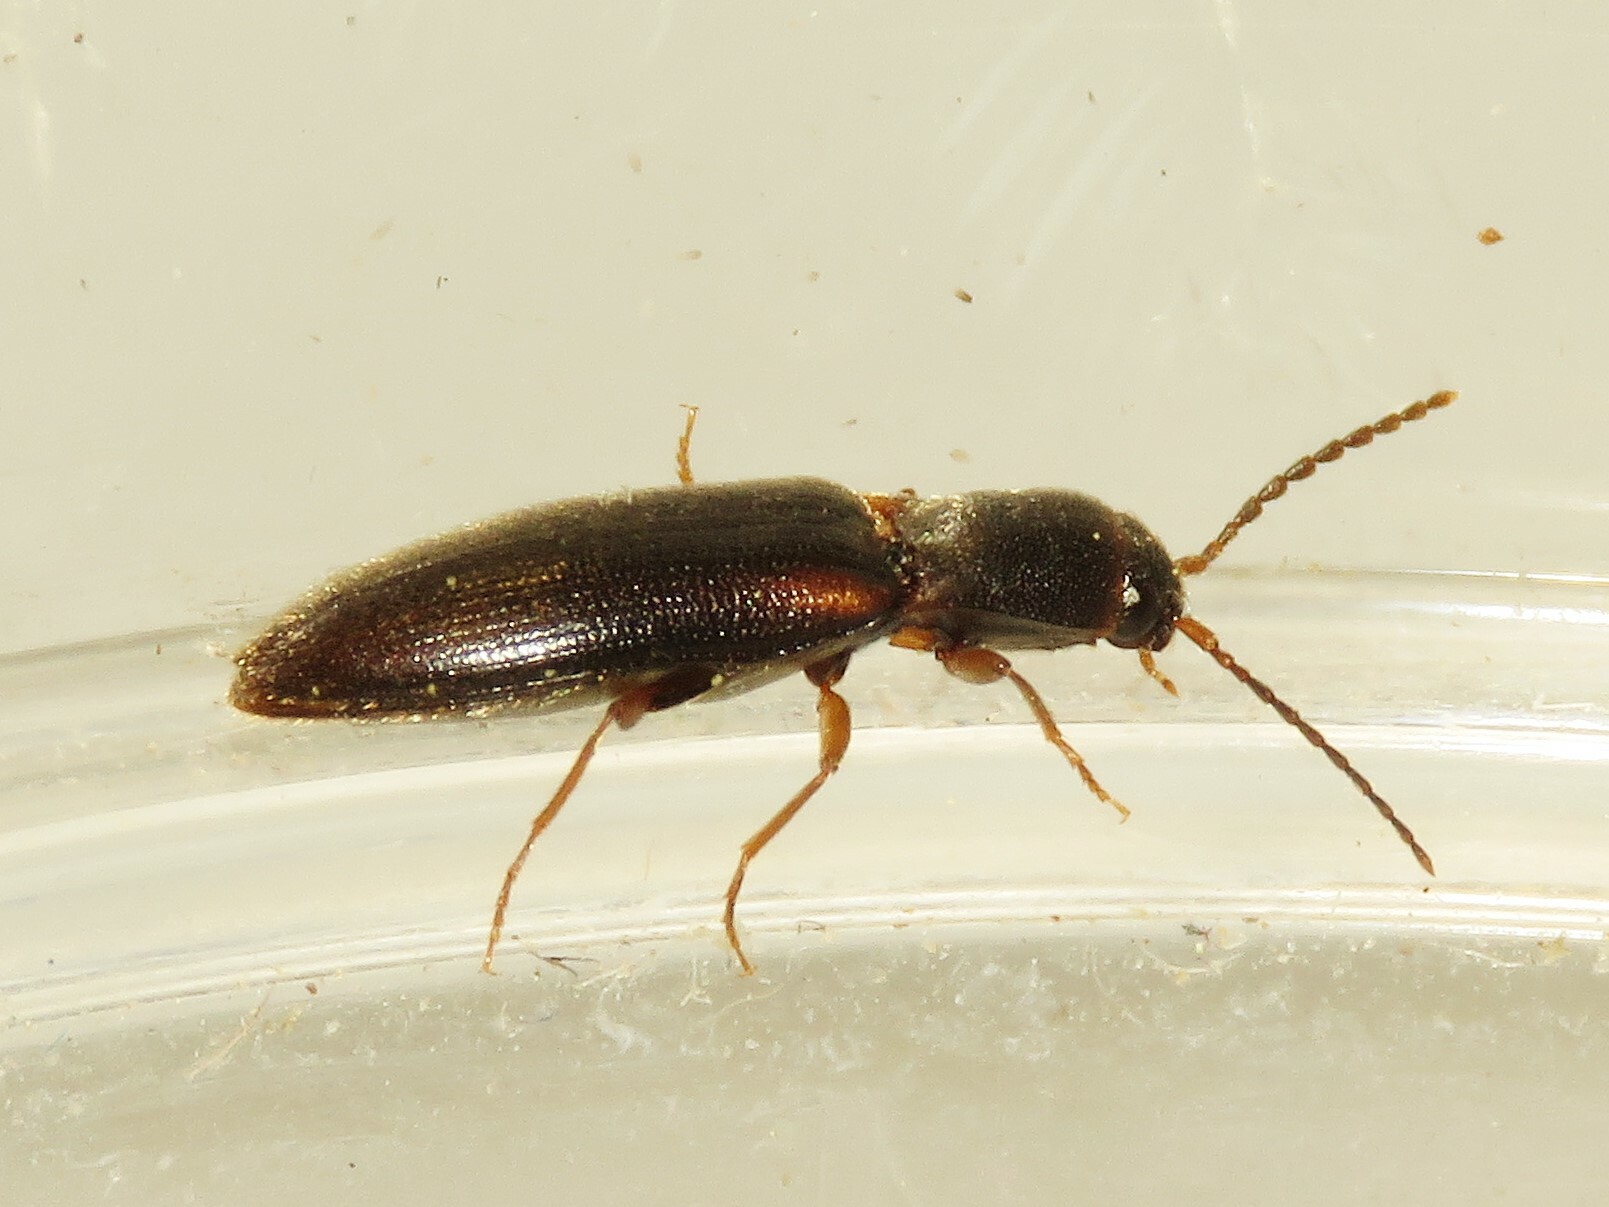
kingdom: Animalia
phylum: Arthropoda
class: Insecta
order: Coleoptera
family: Elateridae
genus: Dalopius
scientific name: Dalopius cognatus
